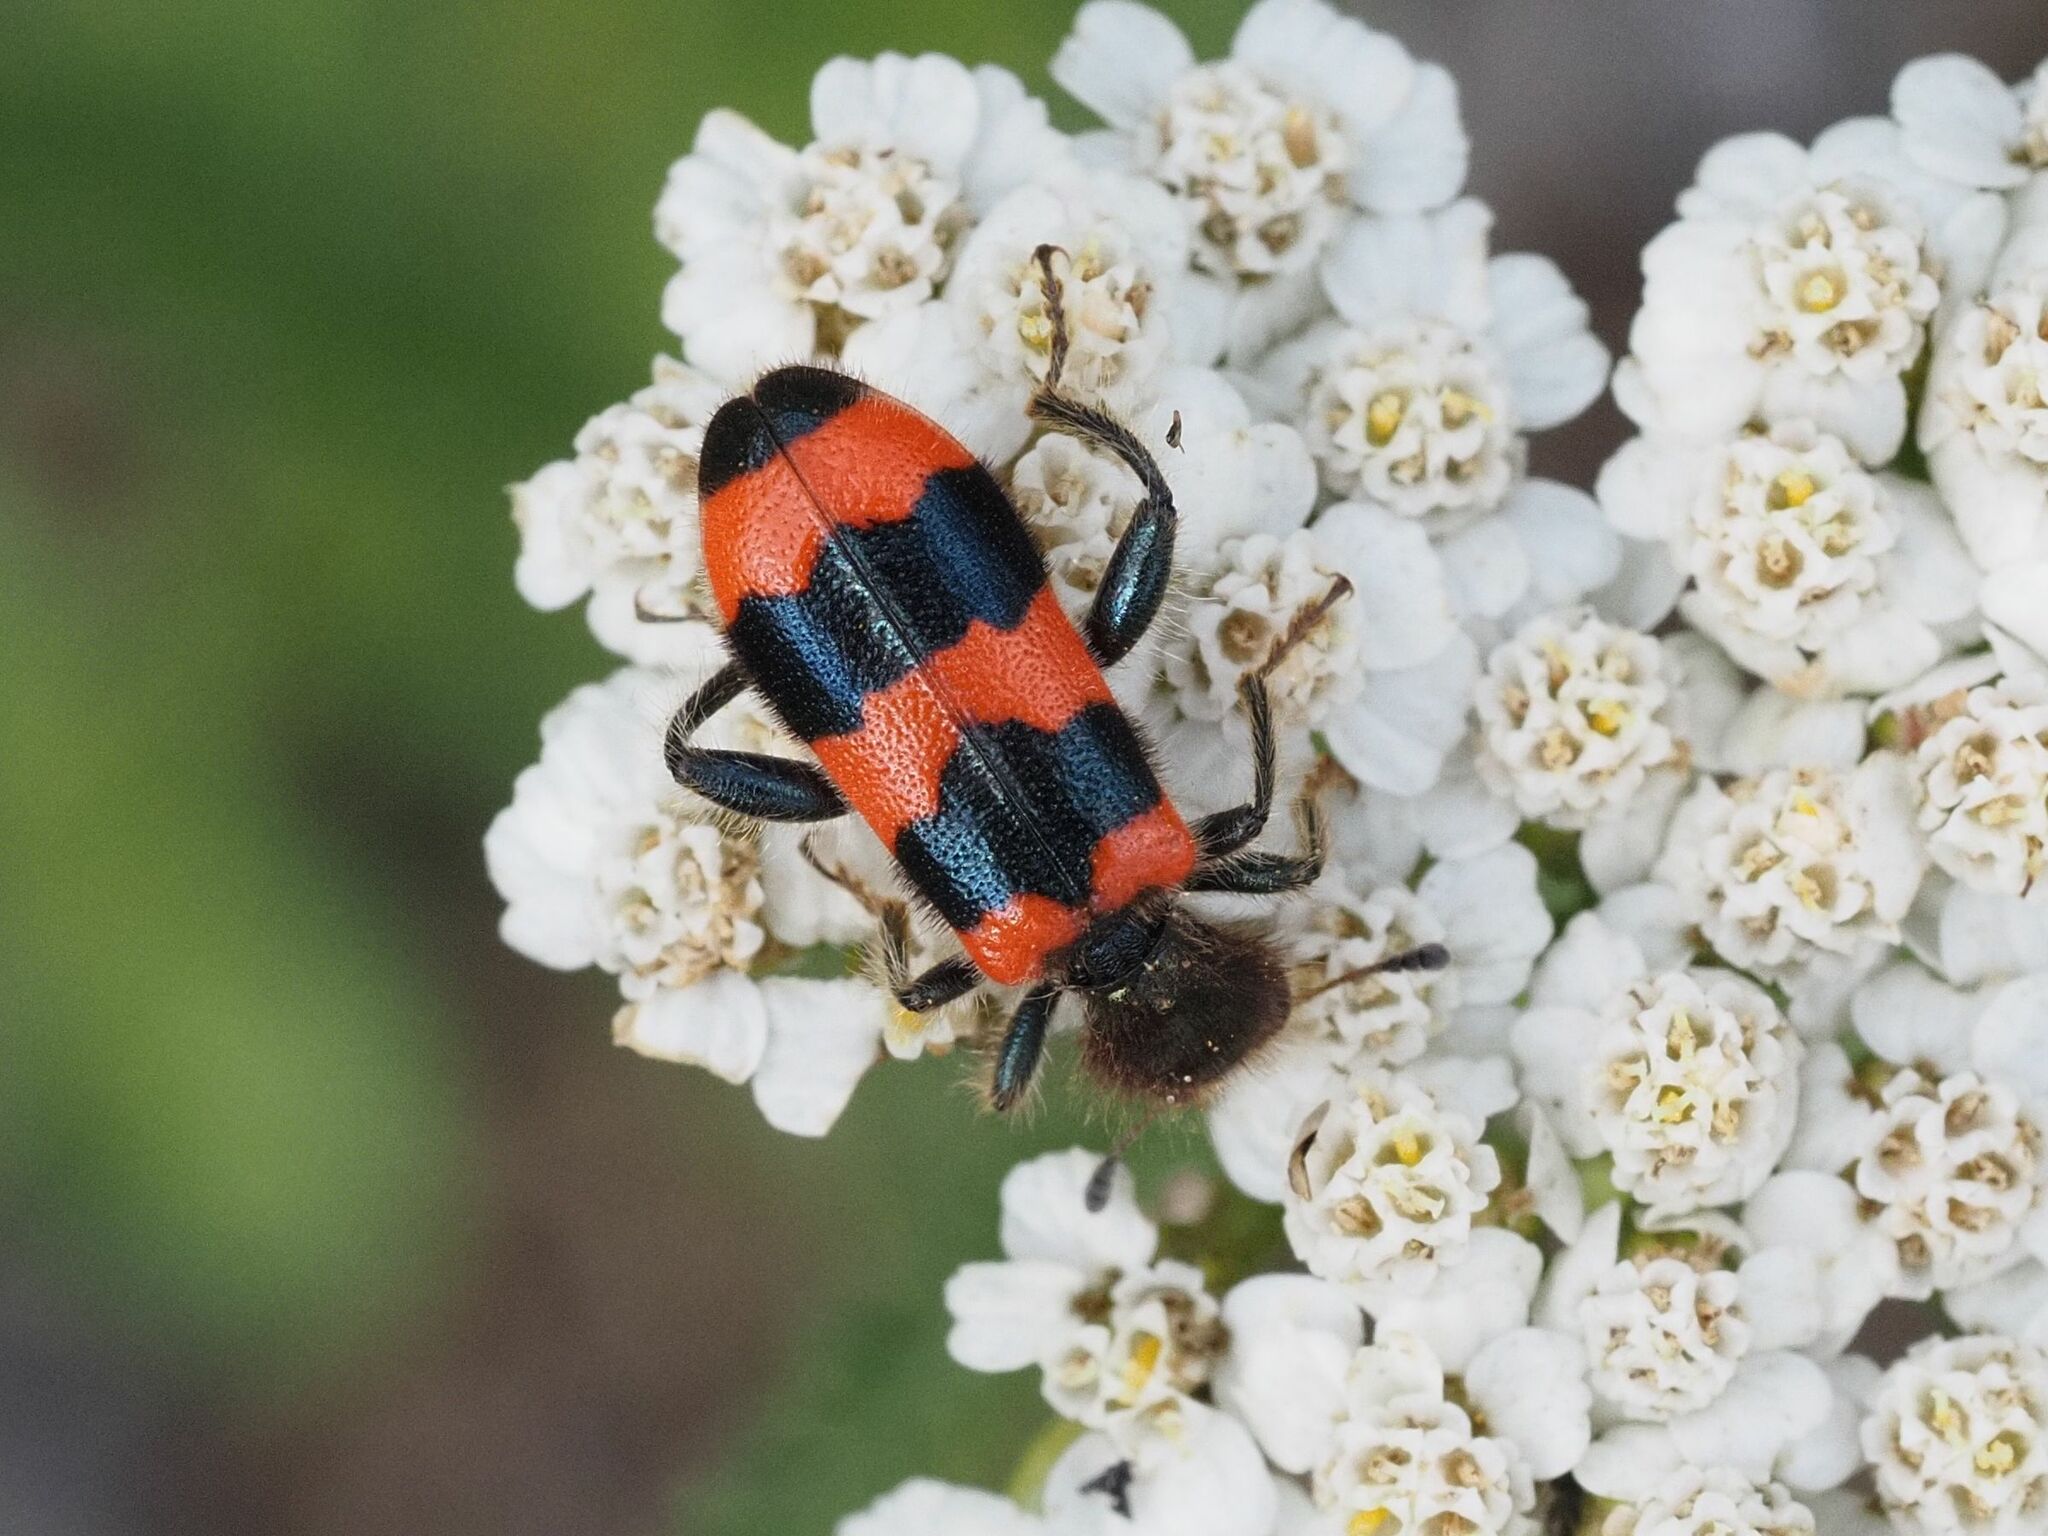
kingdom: Animalia
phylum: Arthropoda
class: Insecta
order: Coleoptera
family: Cleridae
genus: Trichodes
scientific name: Trichodes apiarius
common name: Bee-eating beetle
